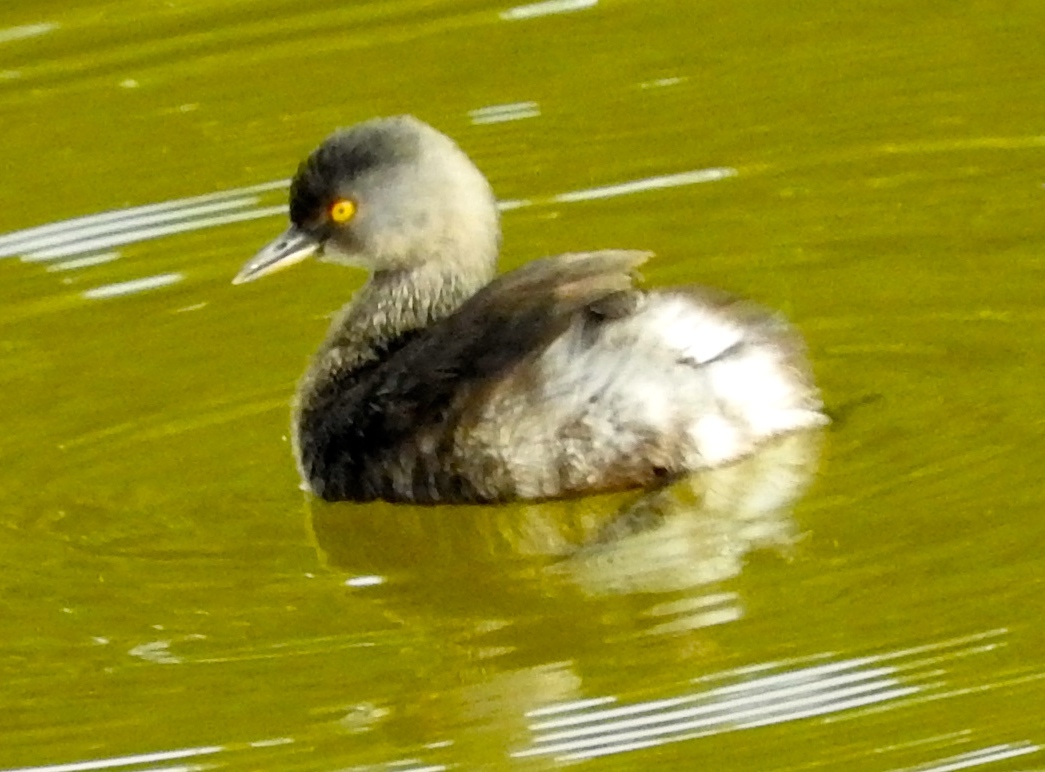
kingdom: Animalia
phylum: Chordata
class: Aves
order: Podicipediformes
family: Podicipedidae
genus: Tachybaptus
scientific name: Tachybaptus dominicus
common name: Least grebe
